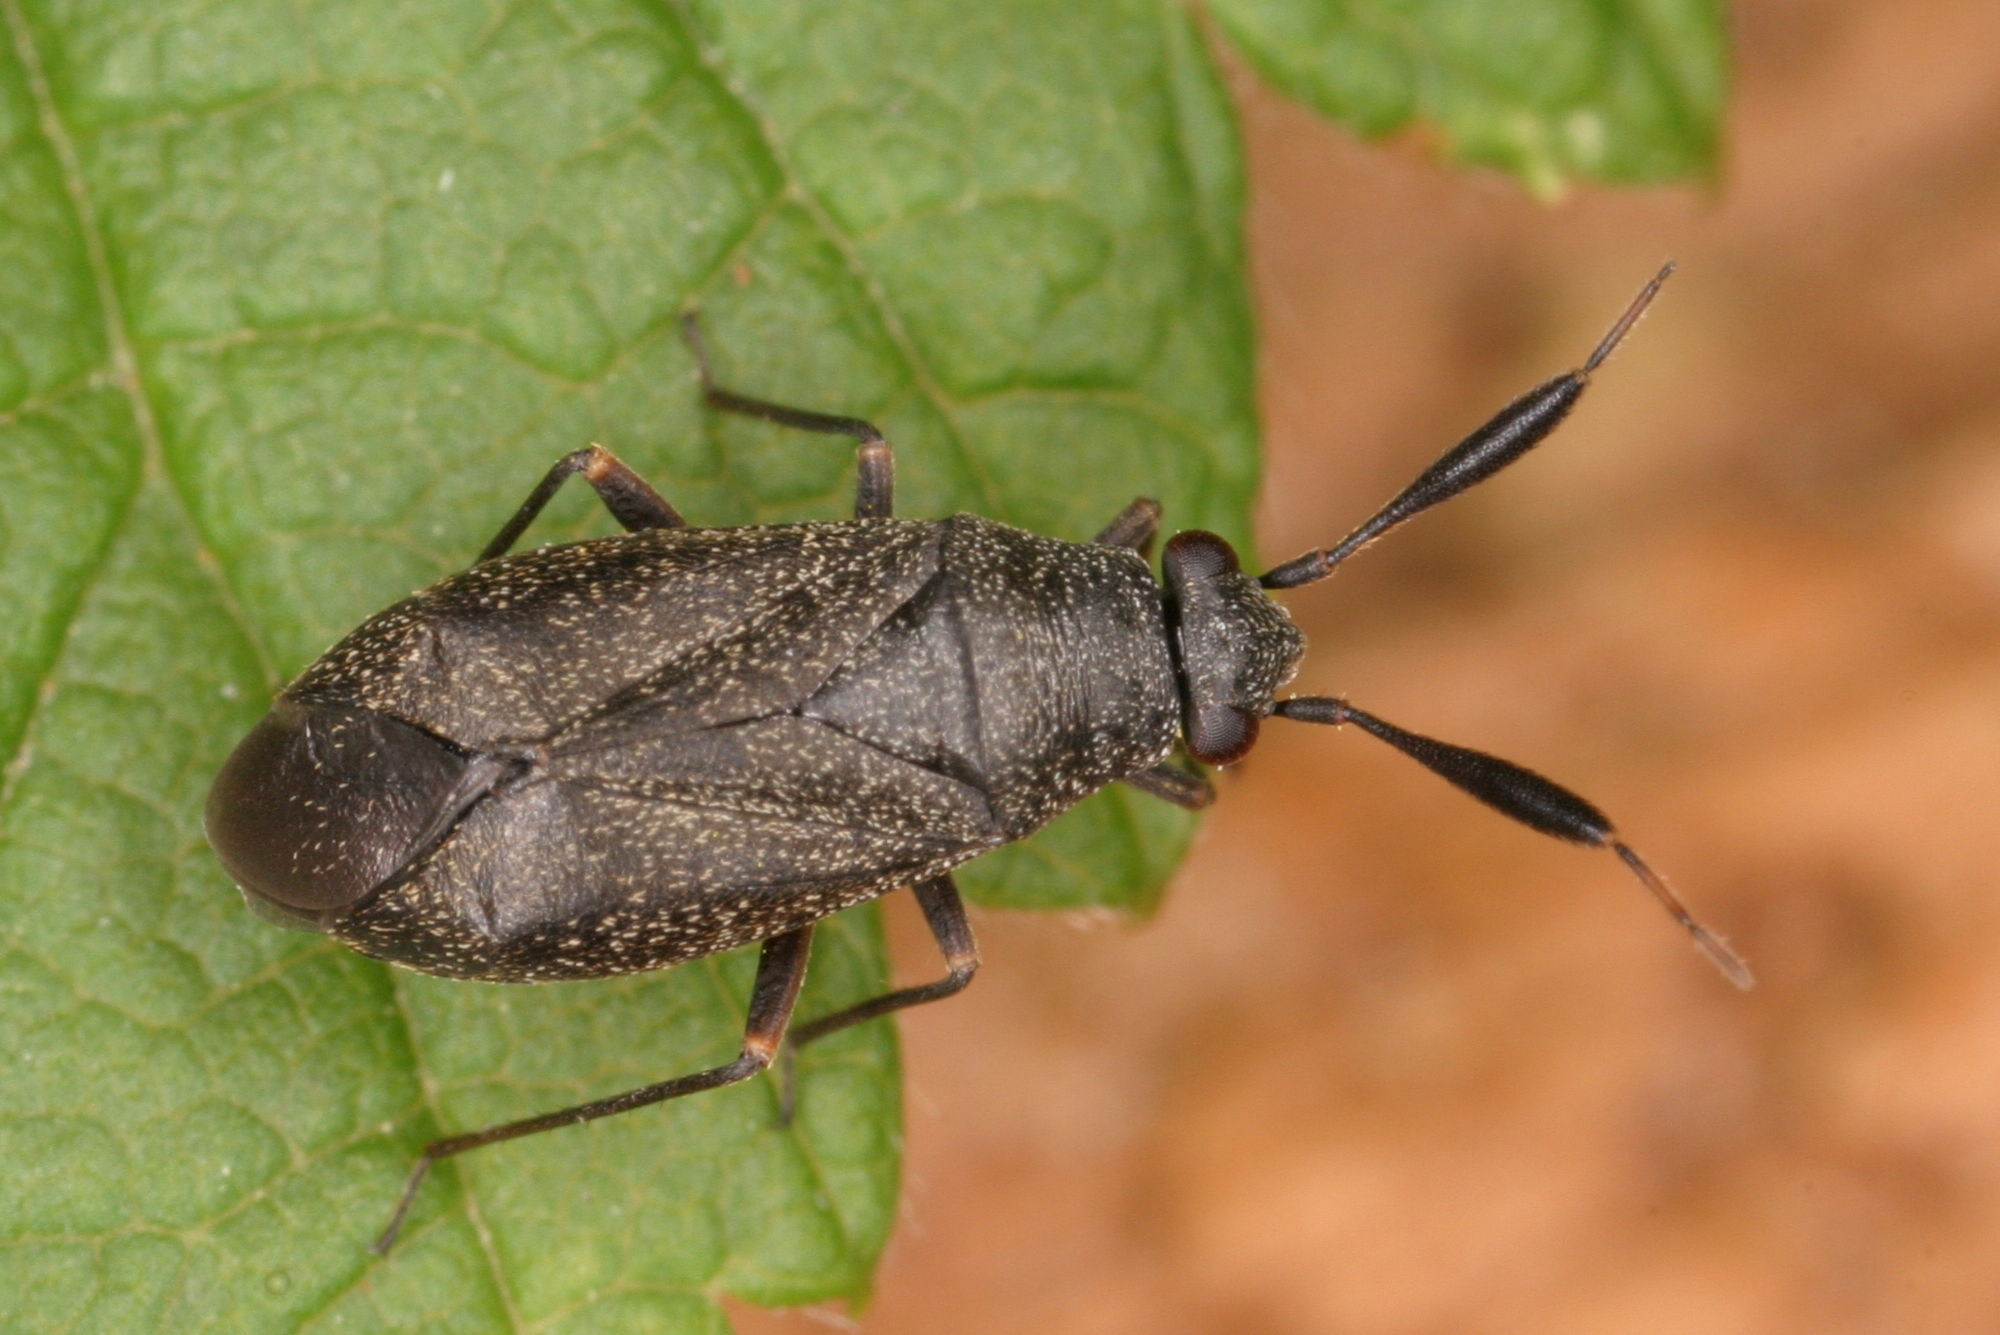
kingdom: Animalia
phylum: Arthropoda
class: Insecta
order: Hemiptera
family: Miridae
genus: Heterocordylus
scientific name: Heterocordylus tumidicornis
